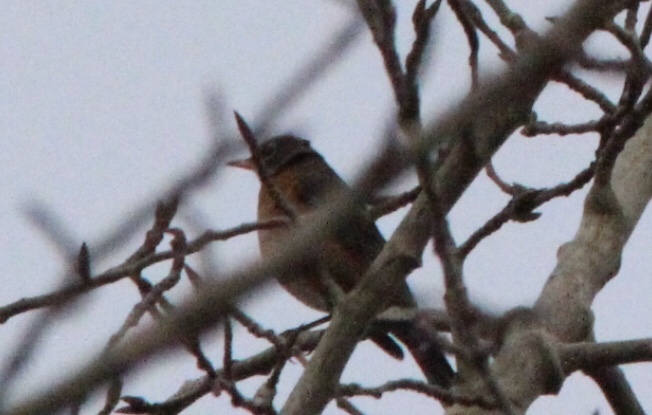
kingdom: Animalia
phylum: Chordata
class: Aves
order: Passeriformes
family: Turdidae
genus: Turdus
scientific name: Turdus migratorius
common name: American robin
